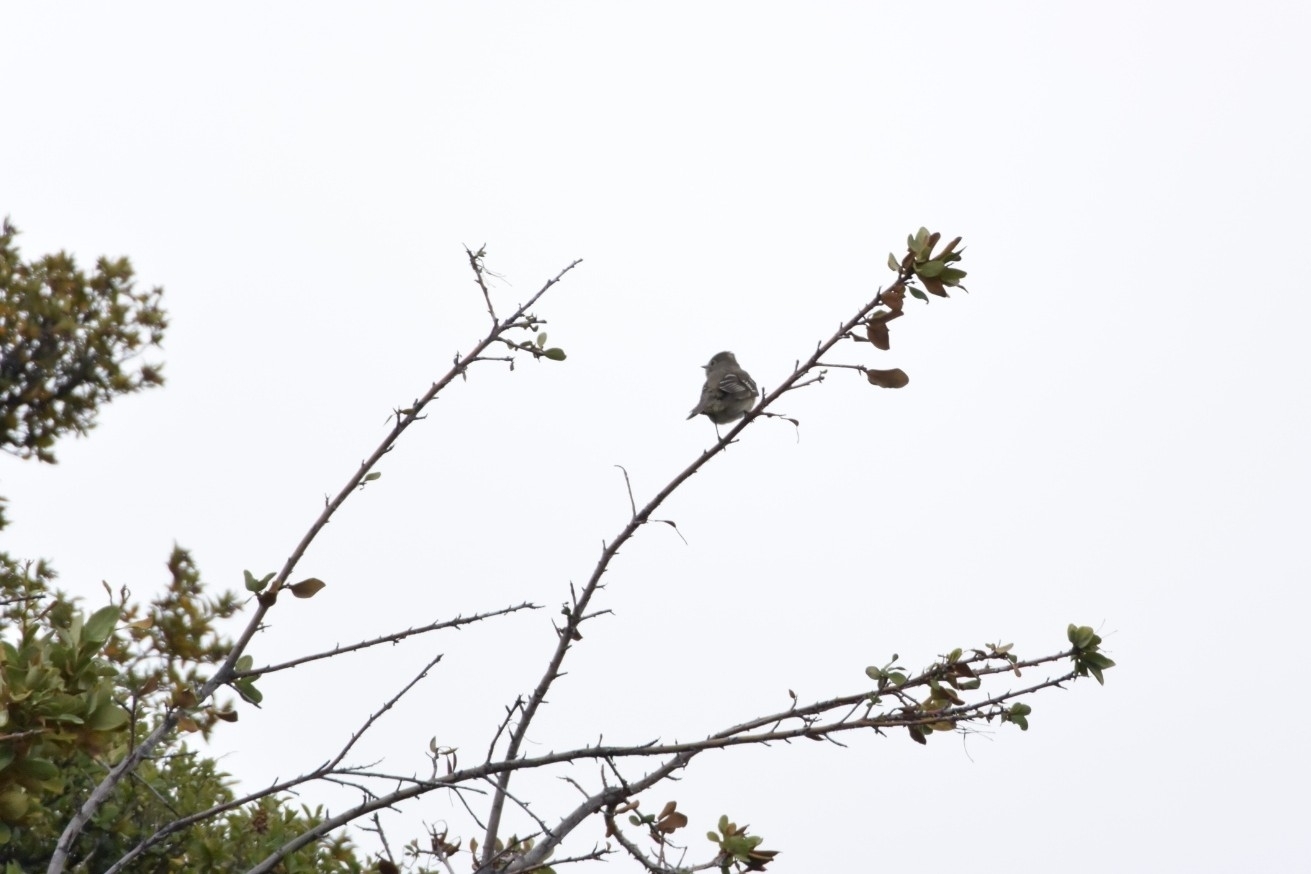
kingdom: Animalia
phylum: Chordata
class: Aves
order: Passeriformes
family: Tyrannidae
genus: Elaenia
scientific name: Elaenia albiceps
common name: White-crested elaenia
